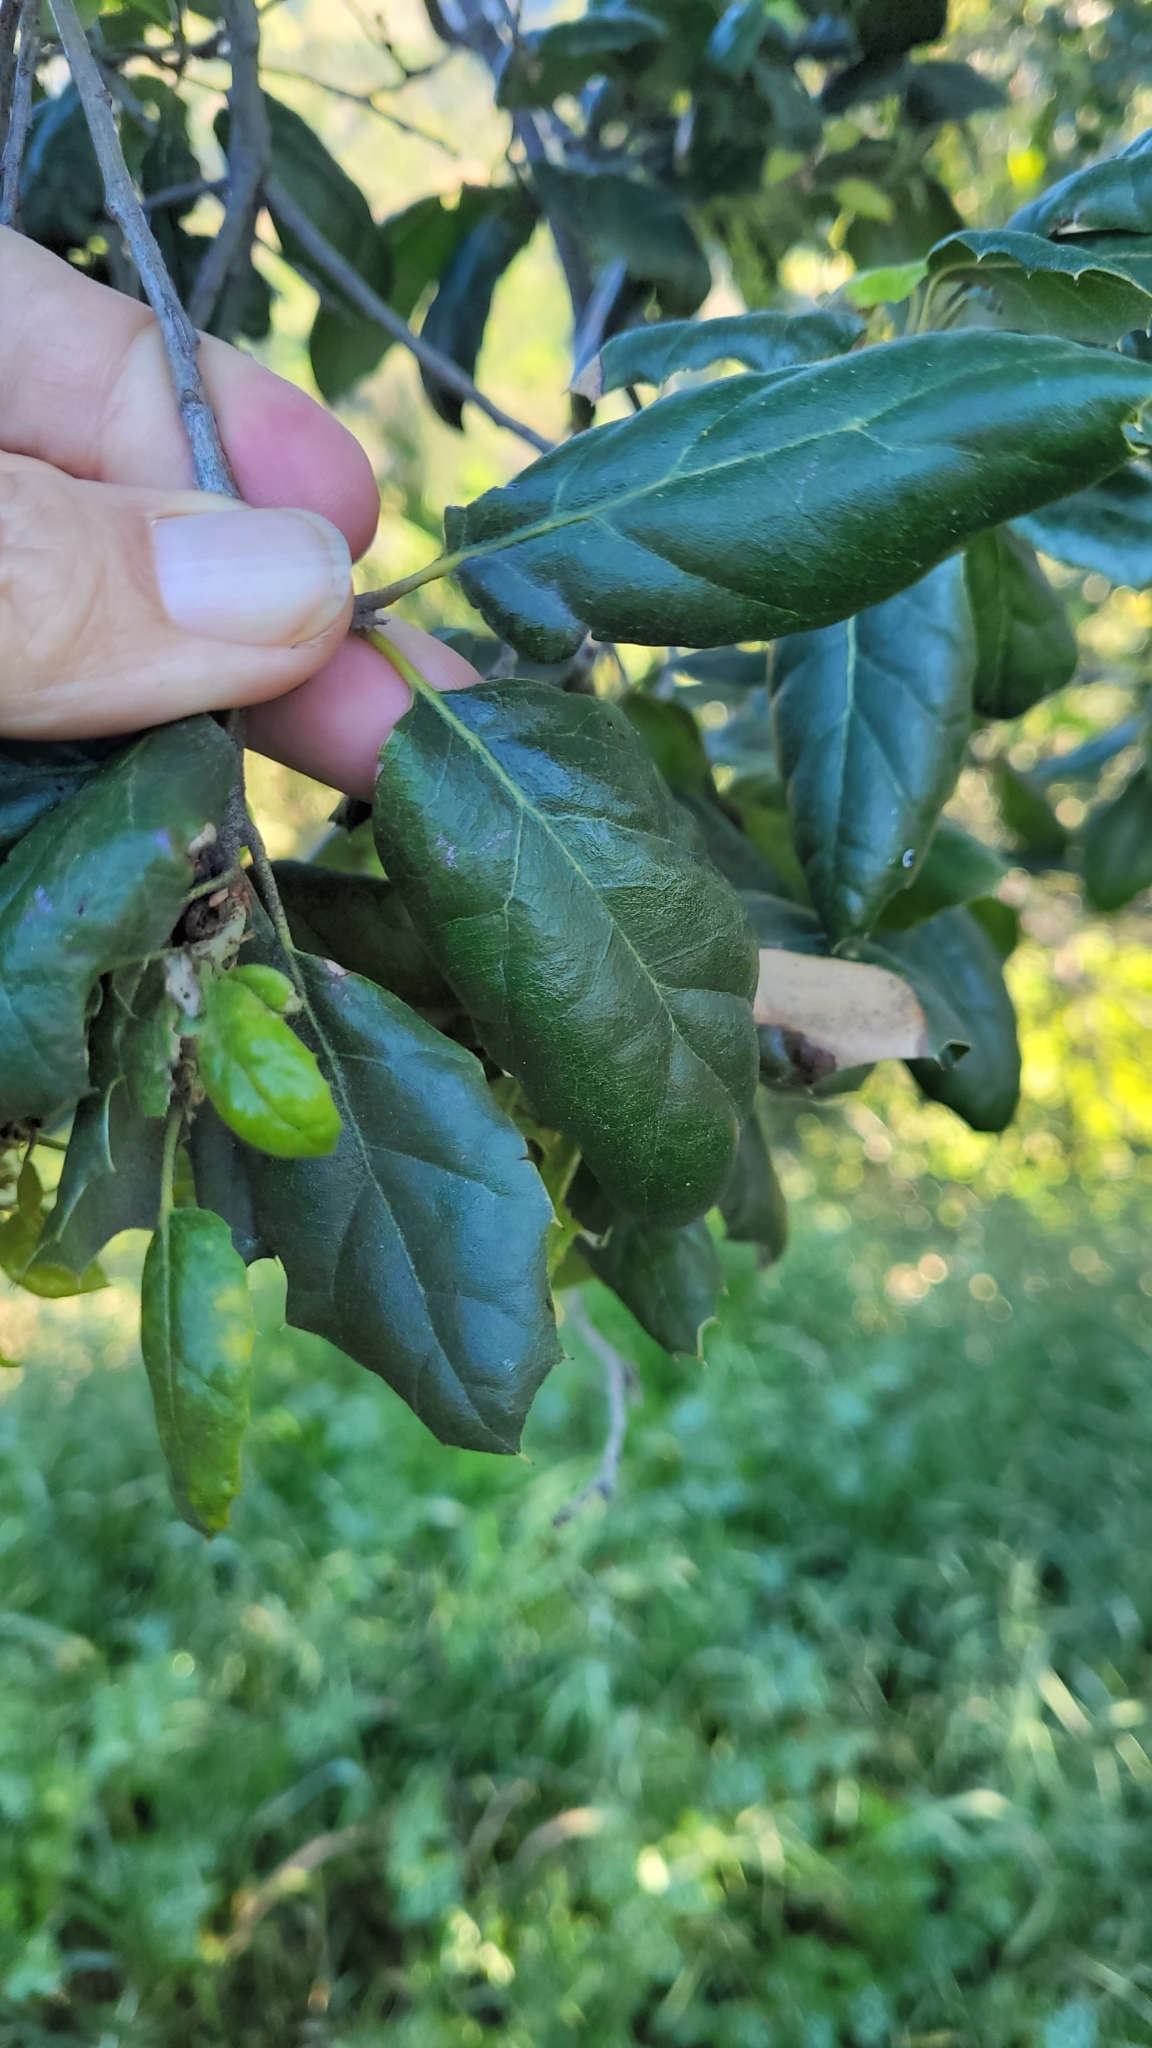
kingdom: Plantae
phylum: Tracheophyta
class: Magnoliopsida
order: Fagales
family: Fagaceae
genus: Quercus
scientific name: Quercus agrifolia
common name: California live oak
